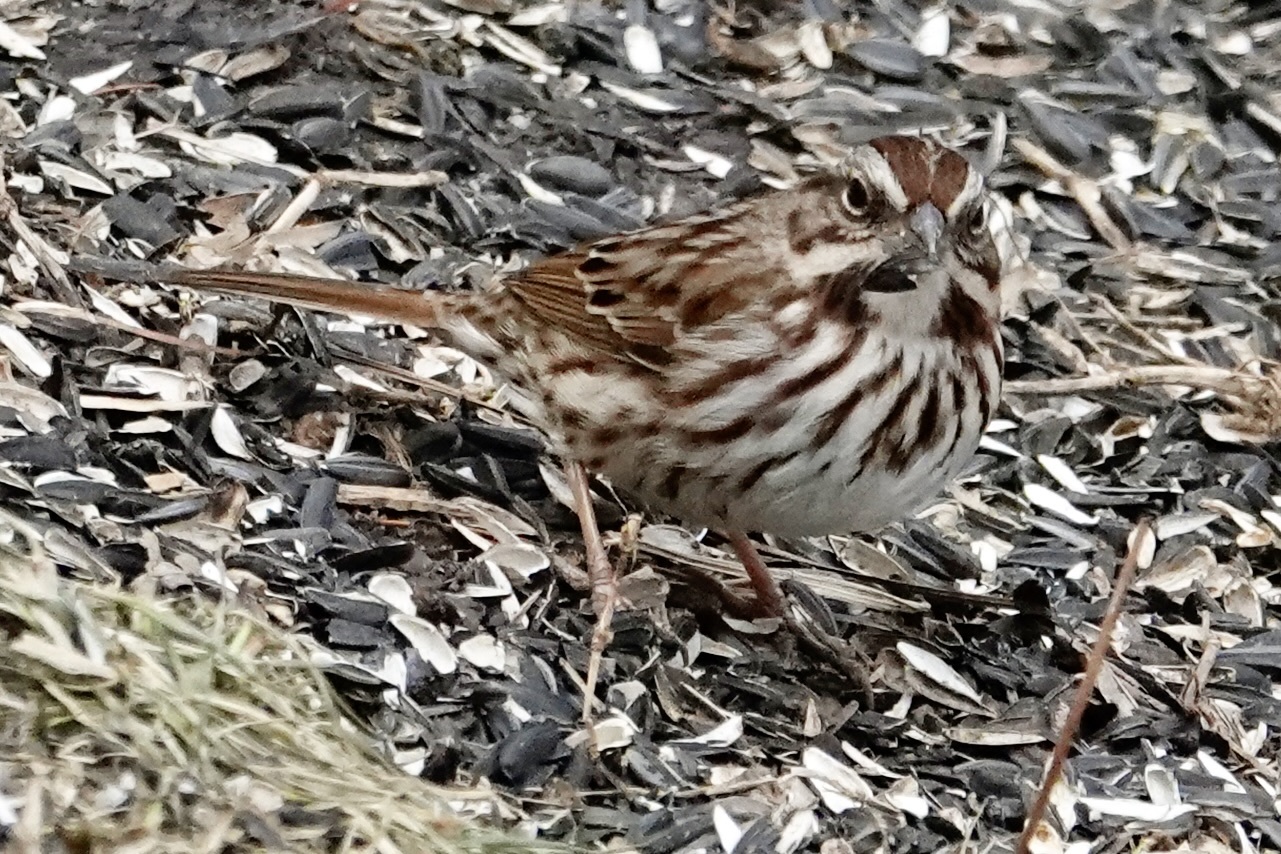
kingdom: Animalia
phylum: Chordata
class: Aves
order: Passeriformes
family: Passerellidae
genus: Melospiza
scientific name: Melospiza melodia
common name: Song sparrow
